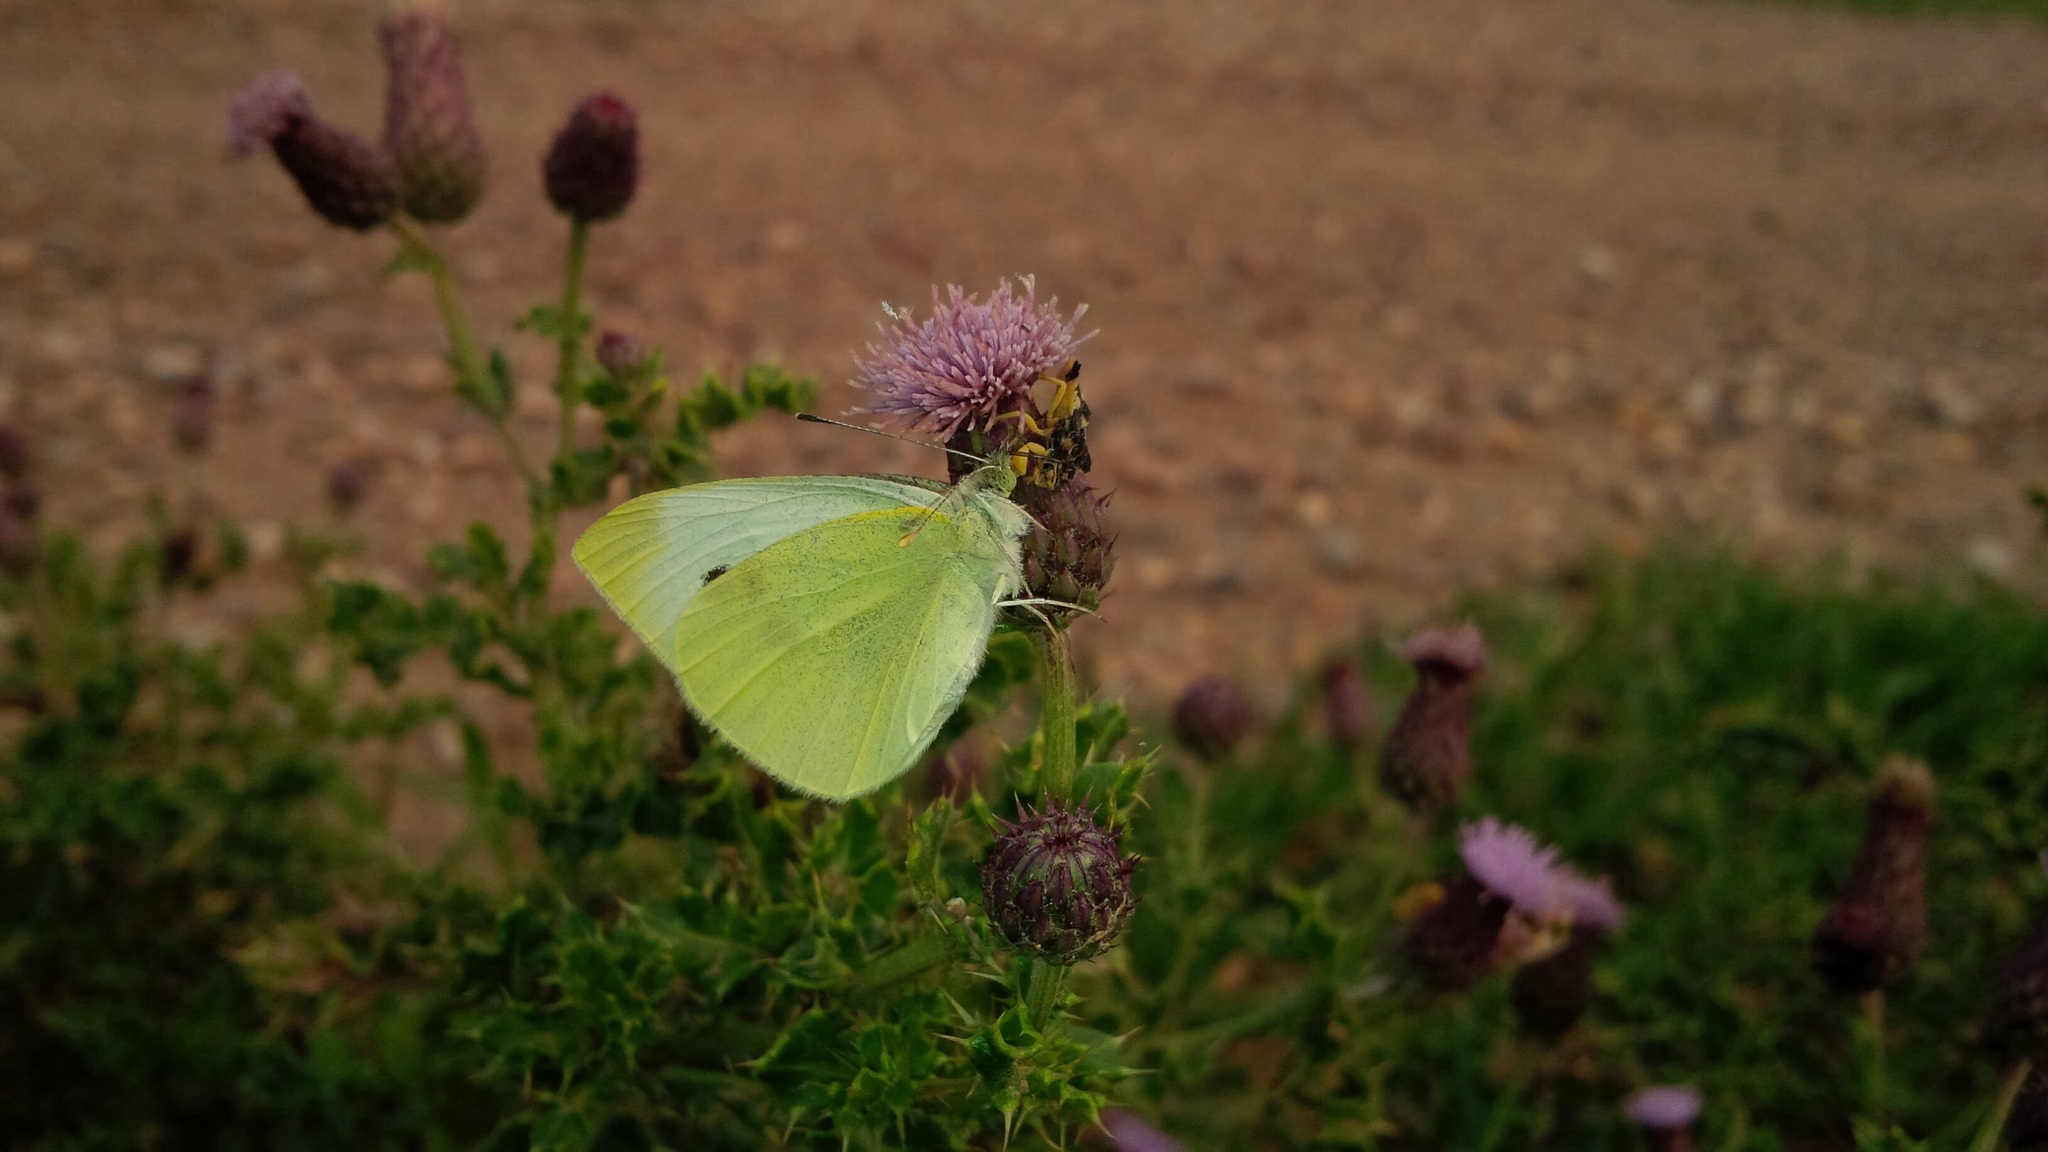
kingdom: Animalia
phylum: Arthropoda
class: Insecta
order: Lepidoptera
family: Pieridae
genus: Pieris
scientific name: Pieris rapae
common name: Small white
